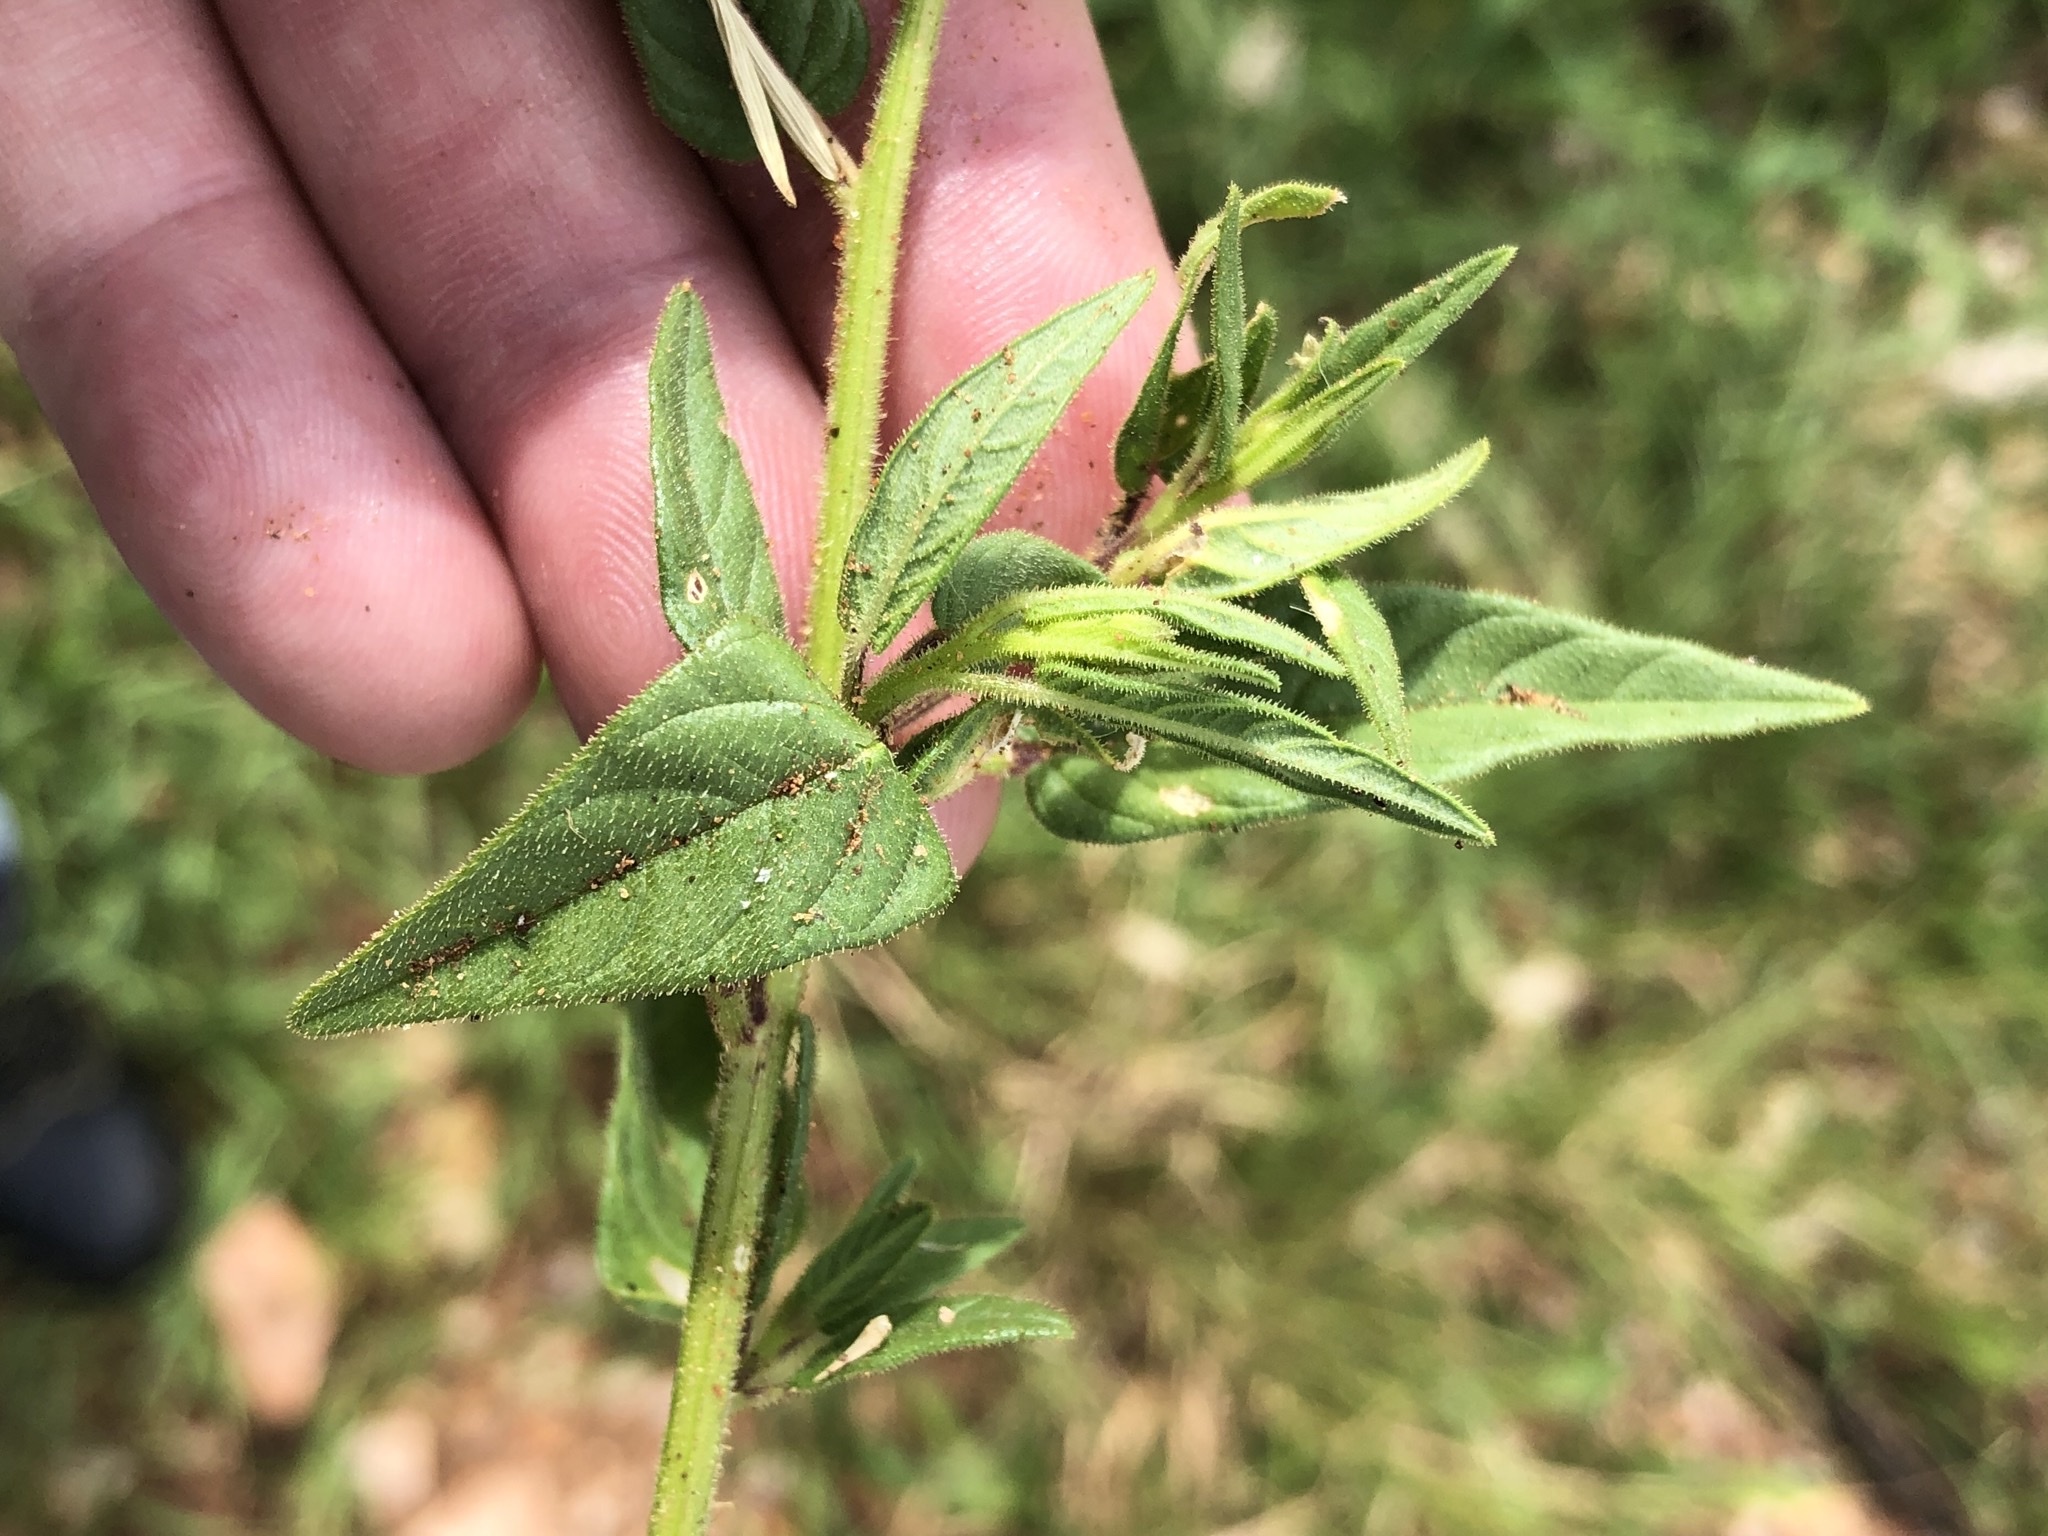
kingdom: Plantae
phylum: Tracheophyta
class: Magnoliopsida
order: Brassicales
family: Cleomaceae
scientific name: Cleomaceae
